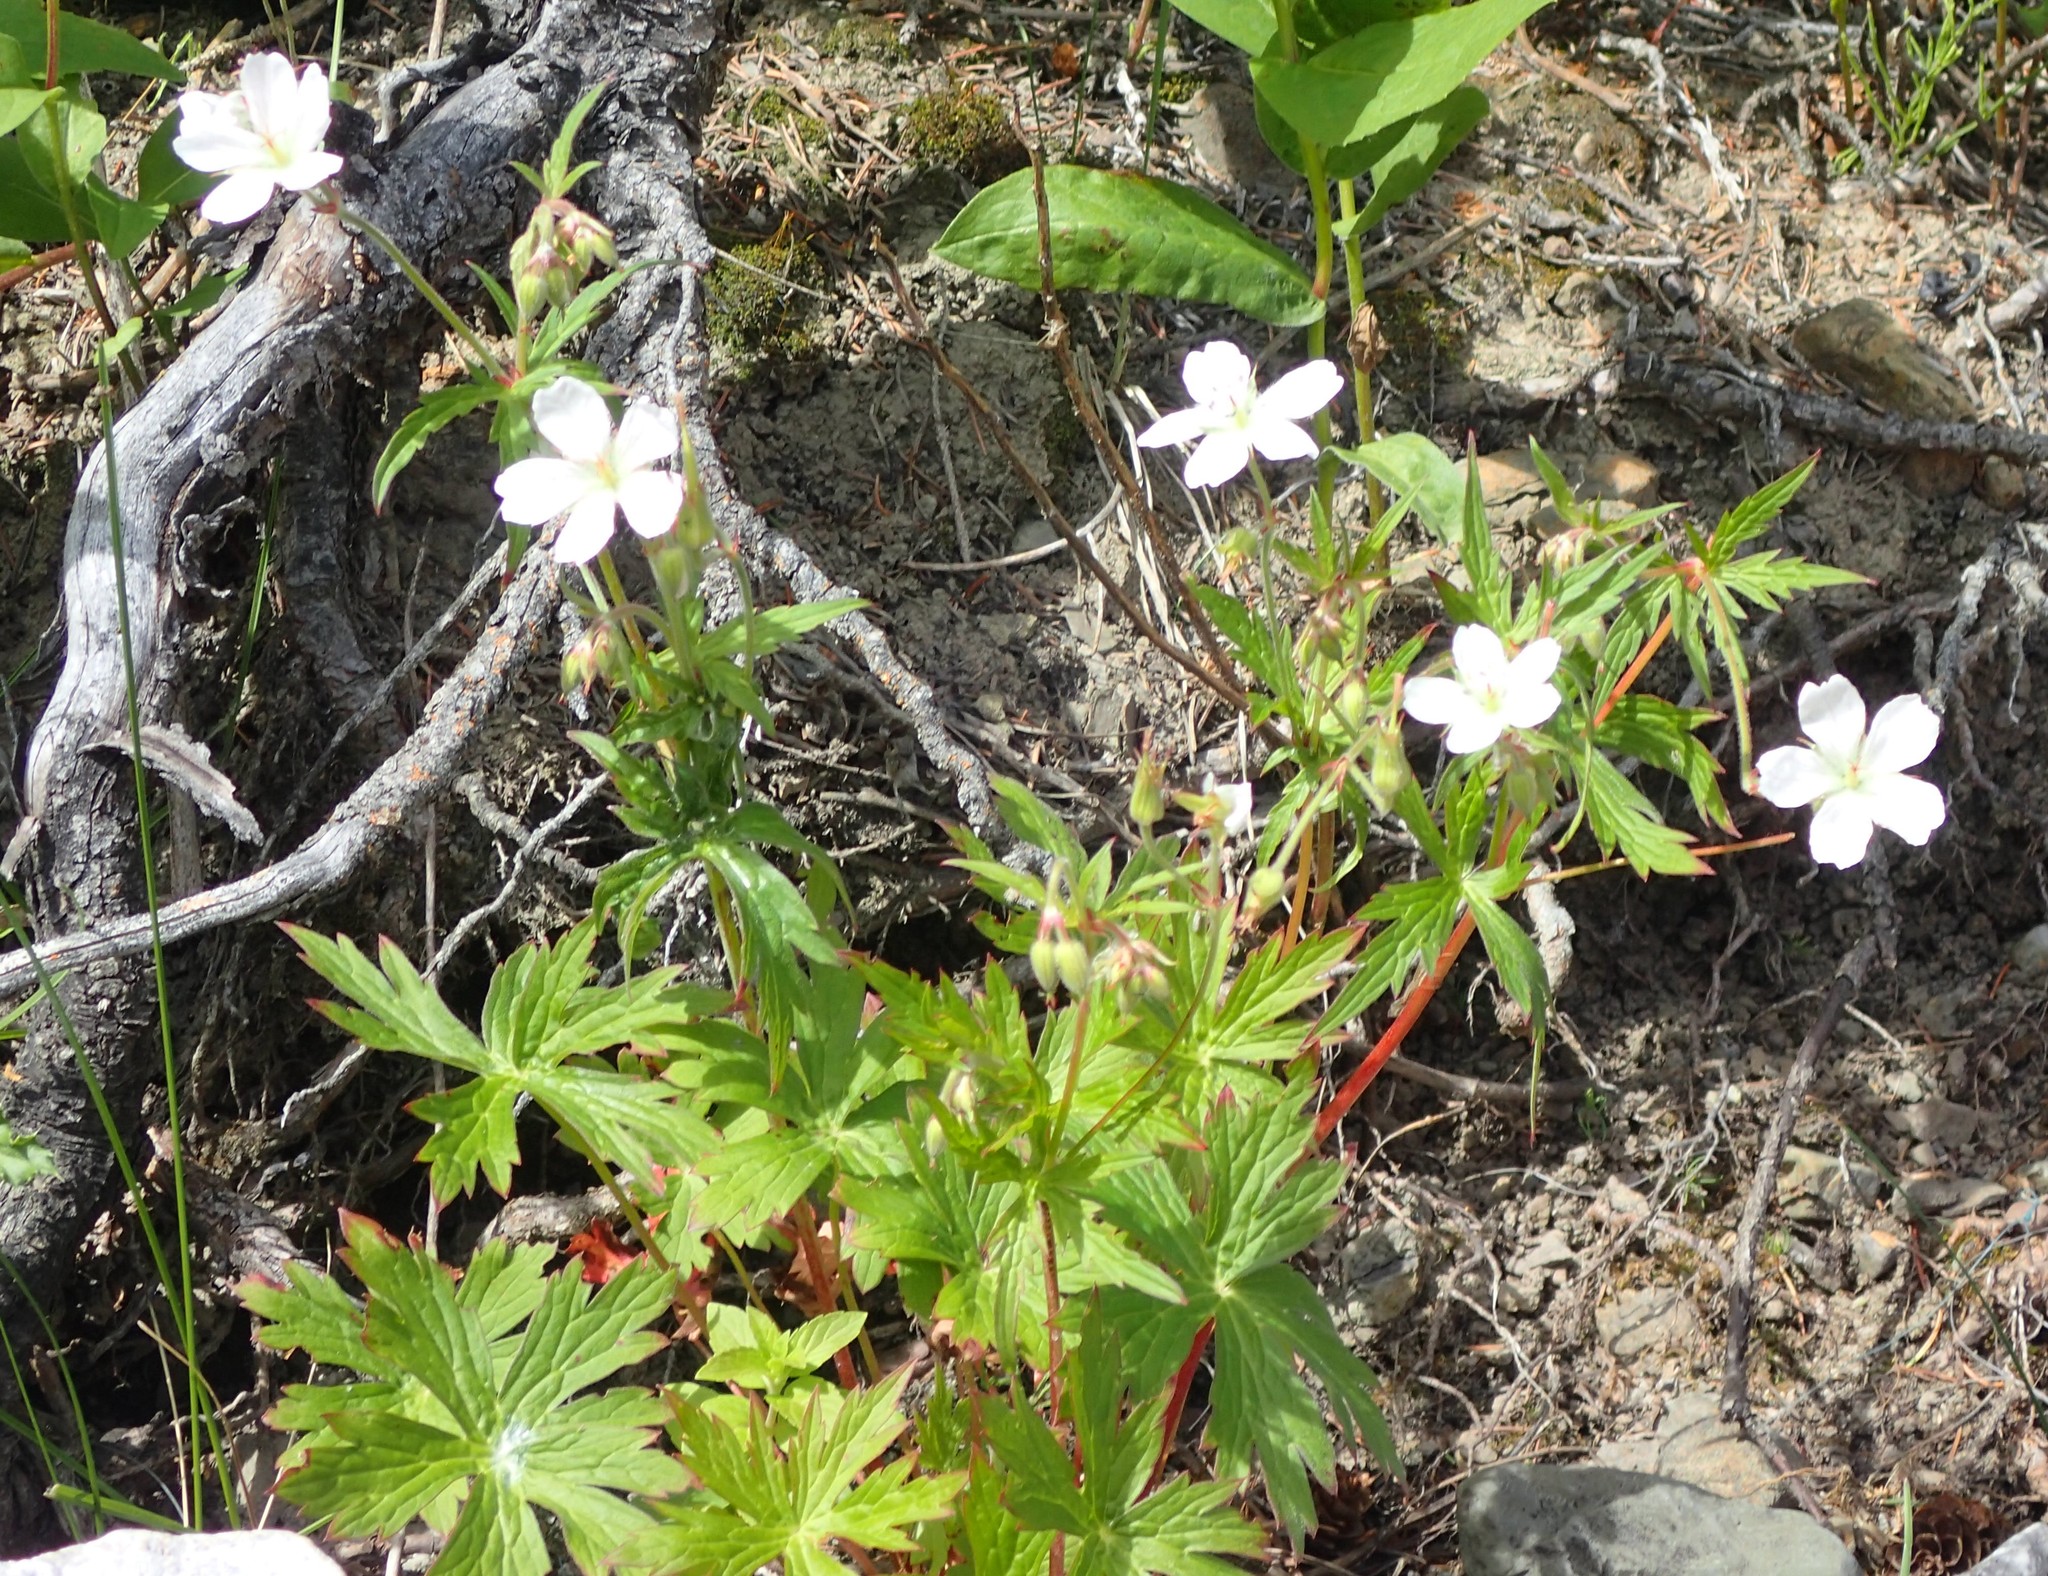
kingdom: Plantae
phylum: Tracheophyta
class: Magnoliopsida
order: Geraniales
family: Geraniaceae
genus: Geranium
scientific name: Geranium richardsonii
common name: Richardson's crane's-bill
